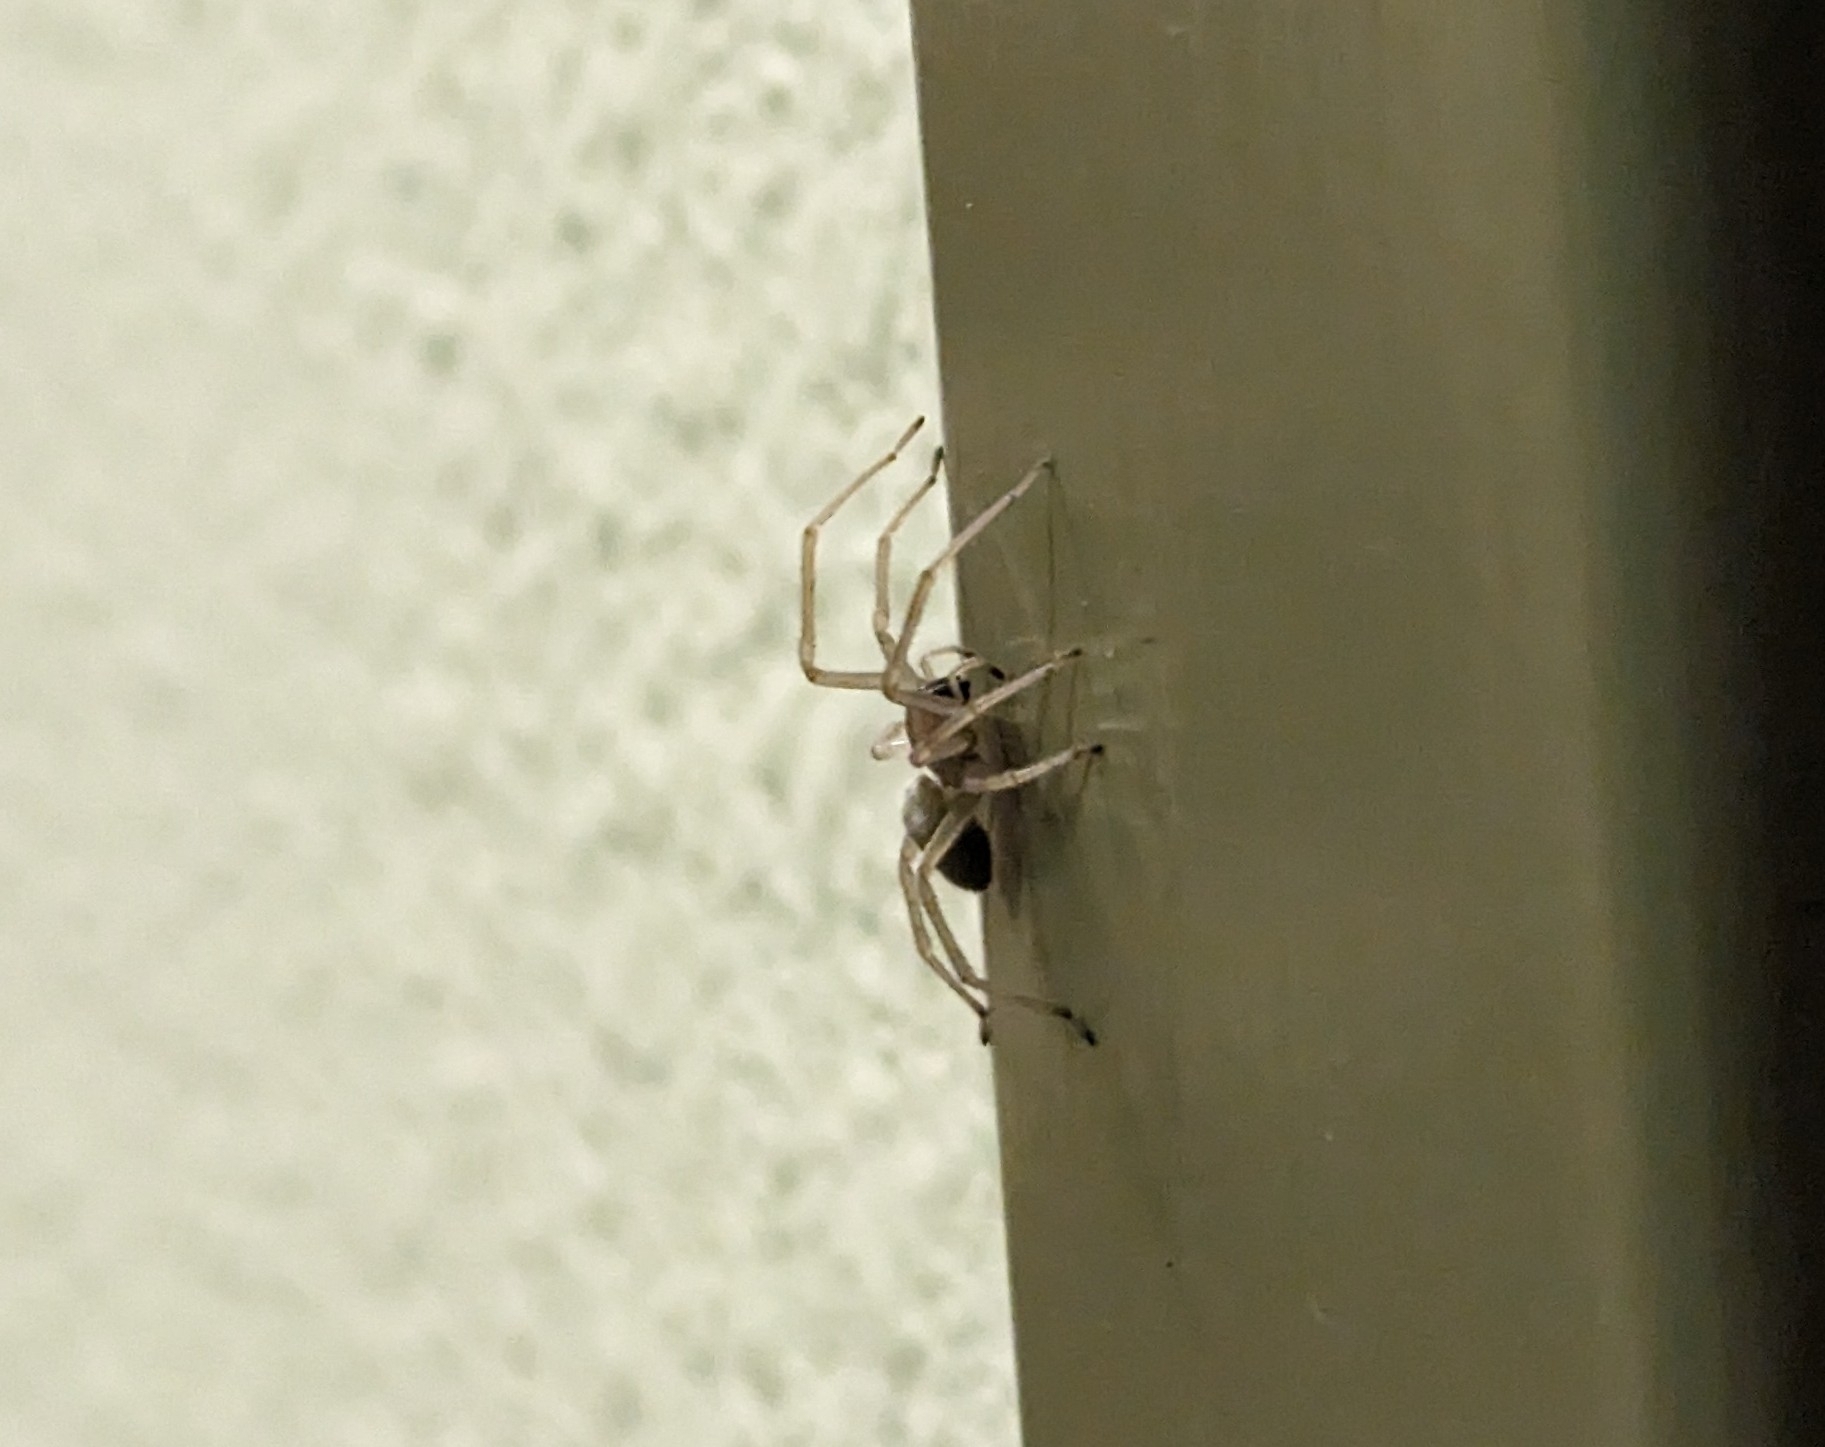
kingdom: Animalia
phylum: Arthropoda
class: Arachnida
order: Araneae
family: Cheiracanthiidae
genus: Cheiracanthium
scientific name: Cheiracanthium mildei
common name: Northern yellow sac spider
